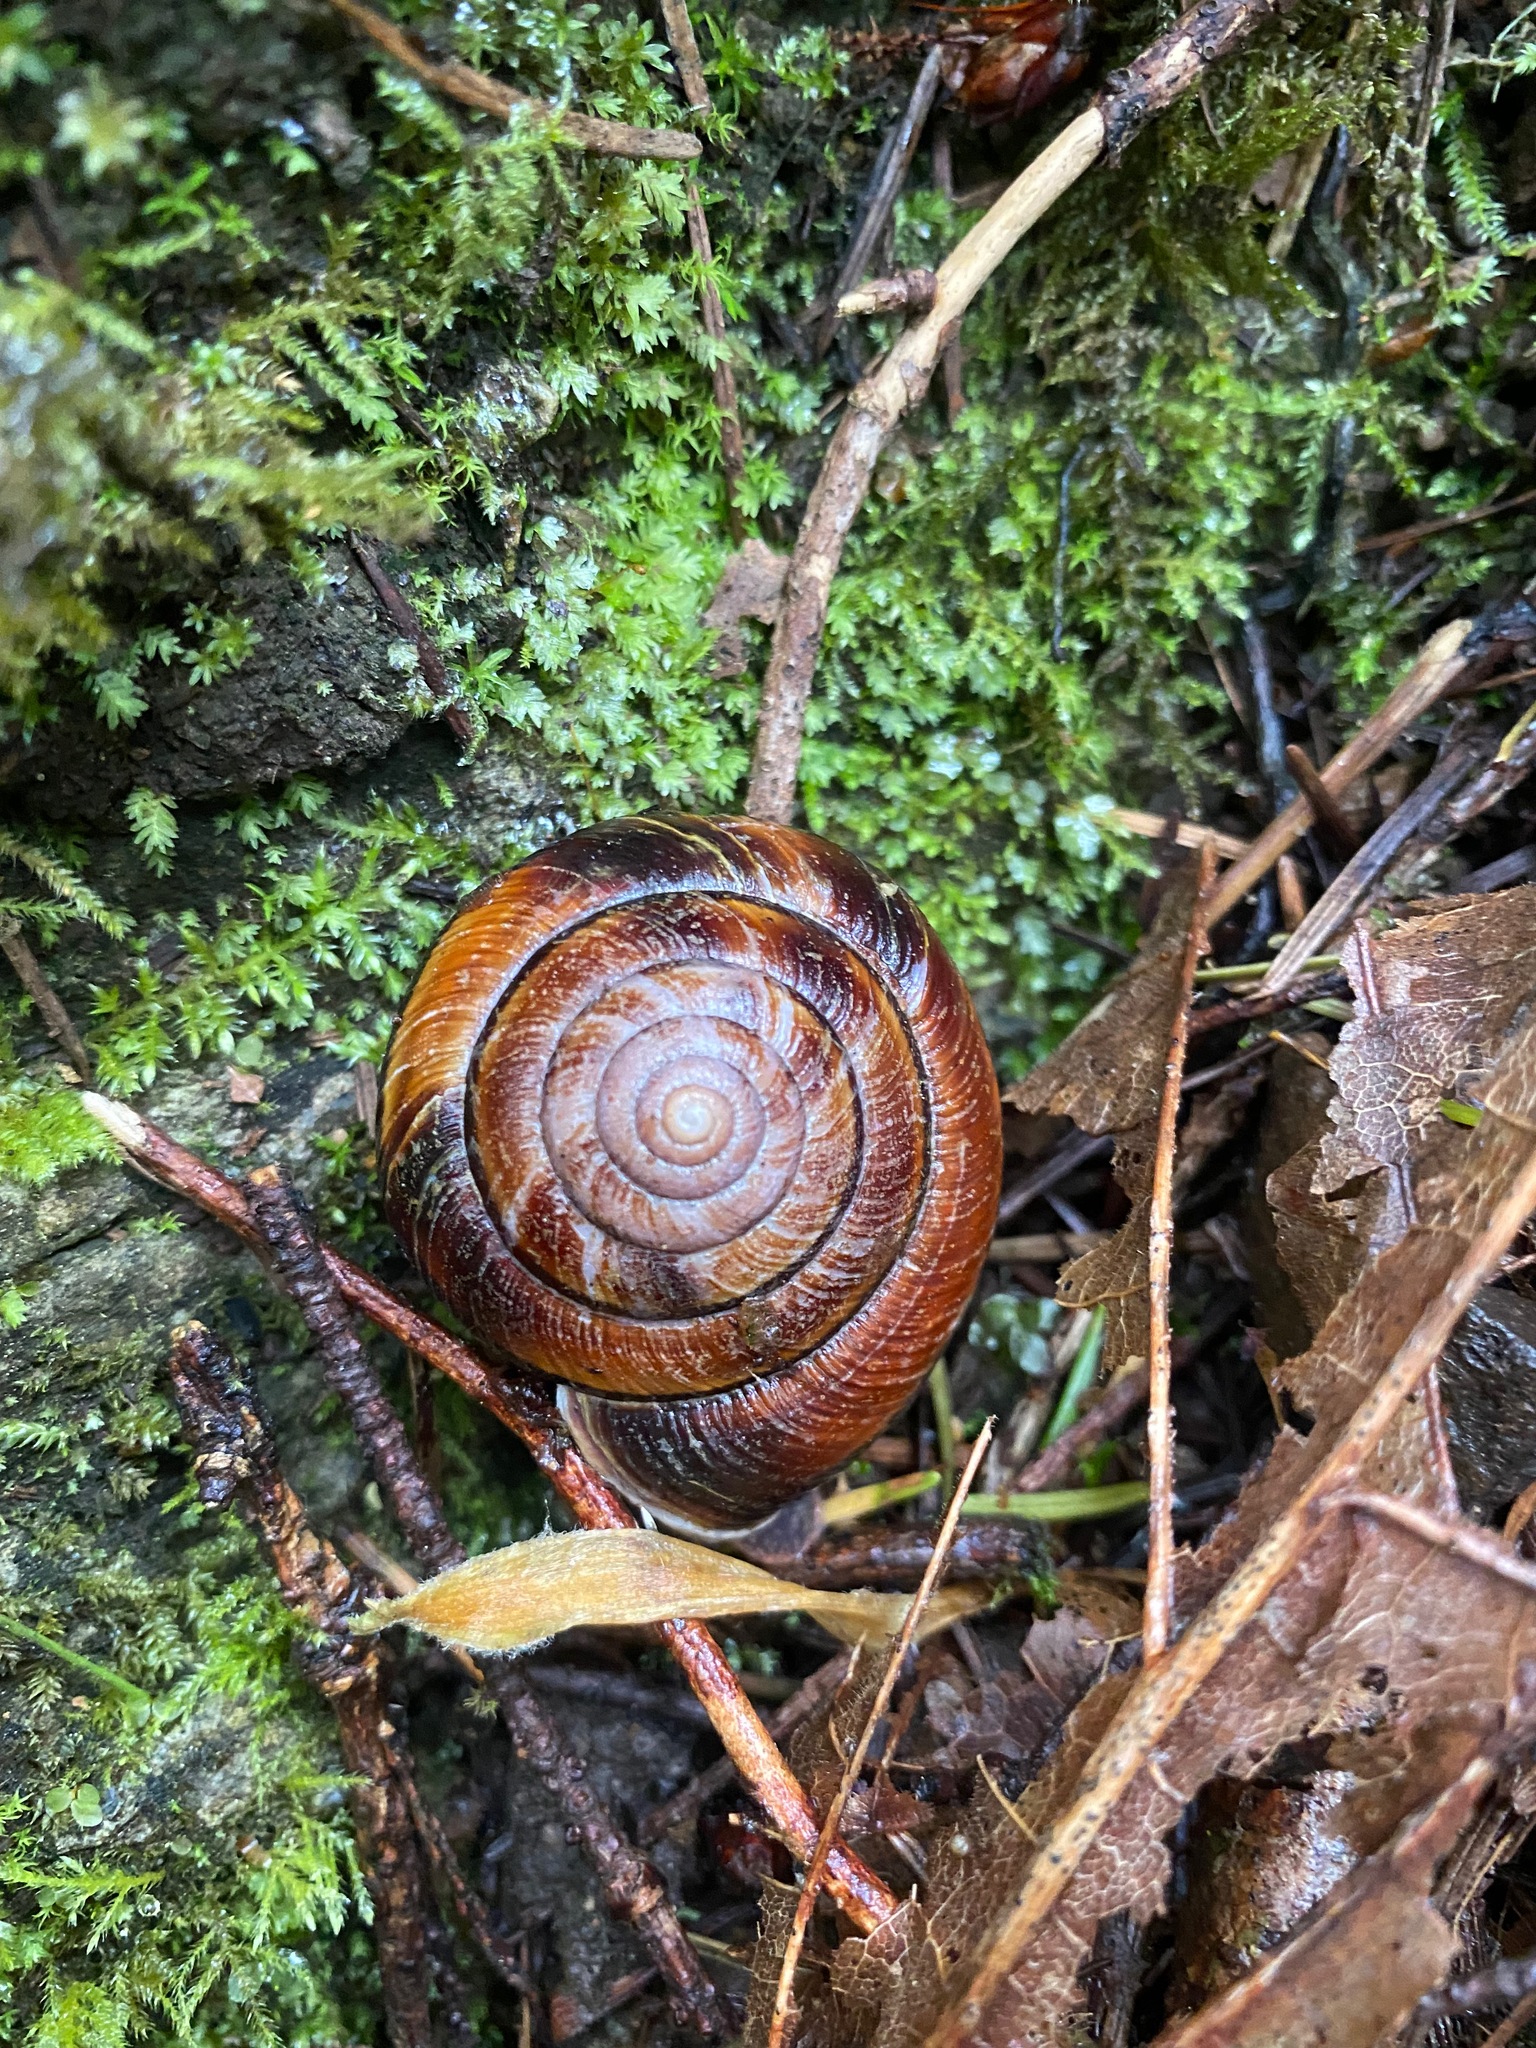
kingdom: Animalia
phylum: Mollusca
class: Gastropoda
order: Stylommatophora
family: Xanthonychidae
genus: Monadenia
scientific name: Monadenia fidelis
